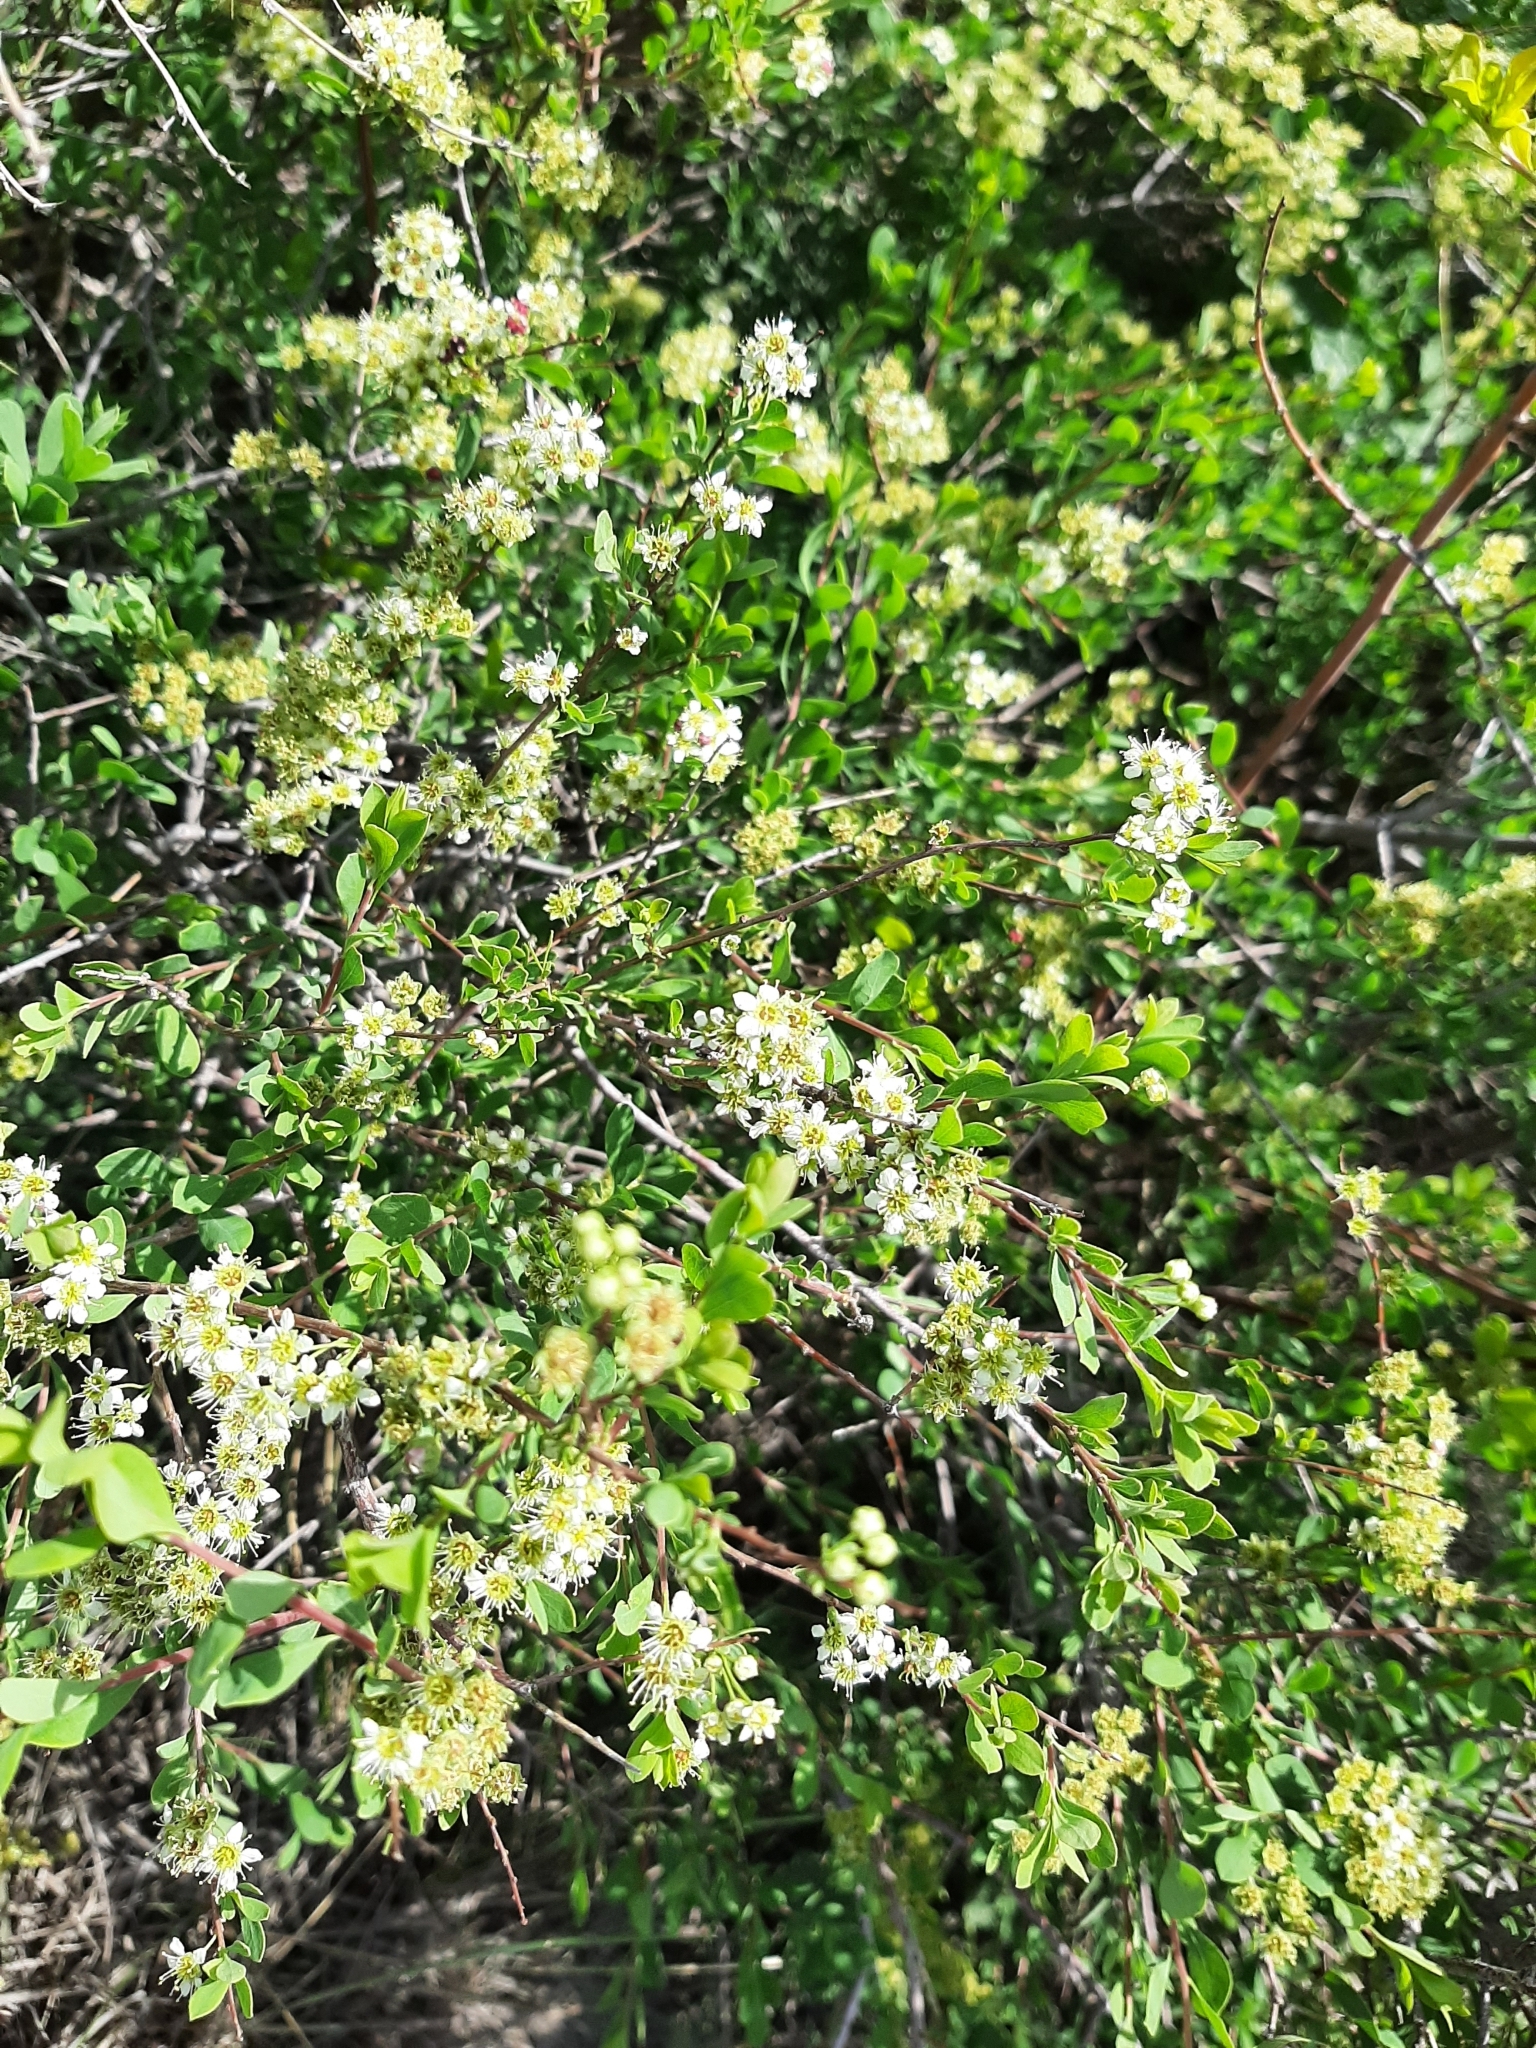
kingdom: Plantae
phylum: Tracheophyta
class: Magnoliopsida
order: Rosales
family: Rosaceae
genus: Spiraea
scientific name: Spiraea hypericifolia
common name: Iberian spirea
